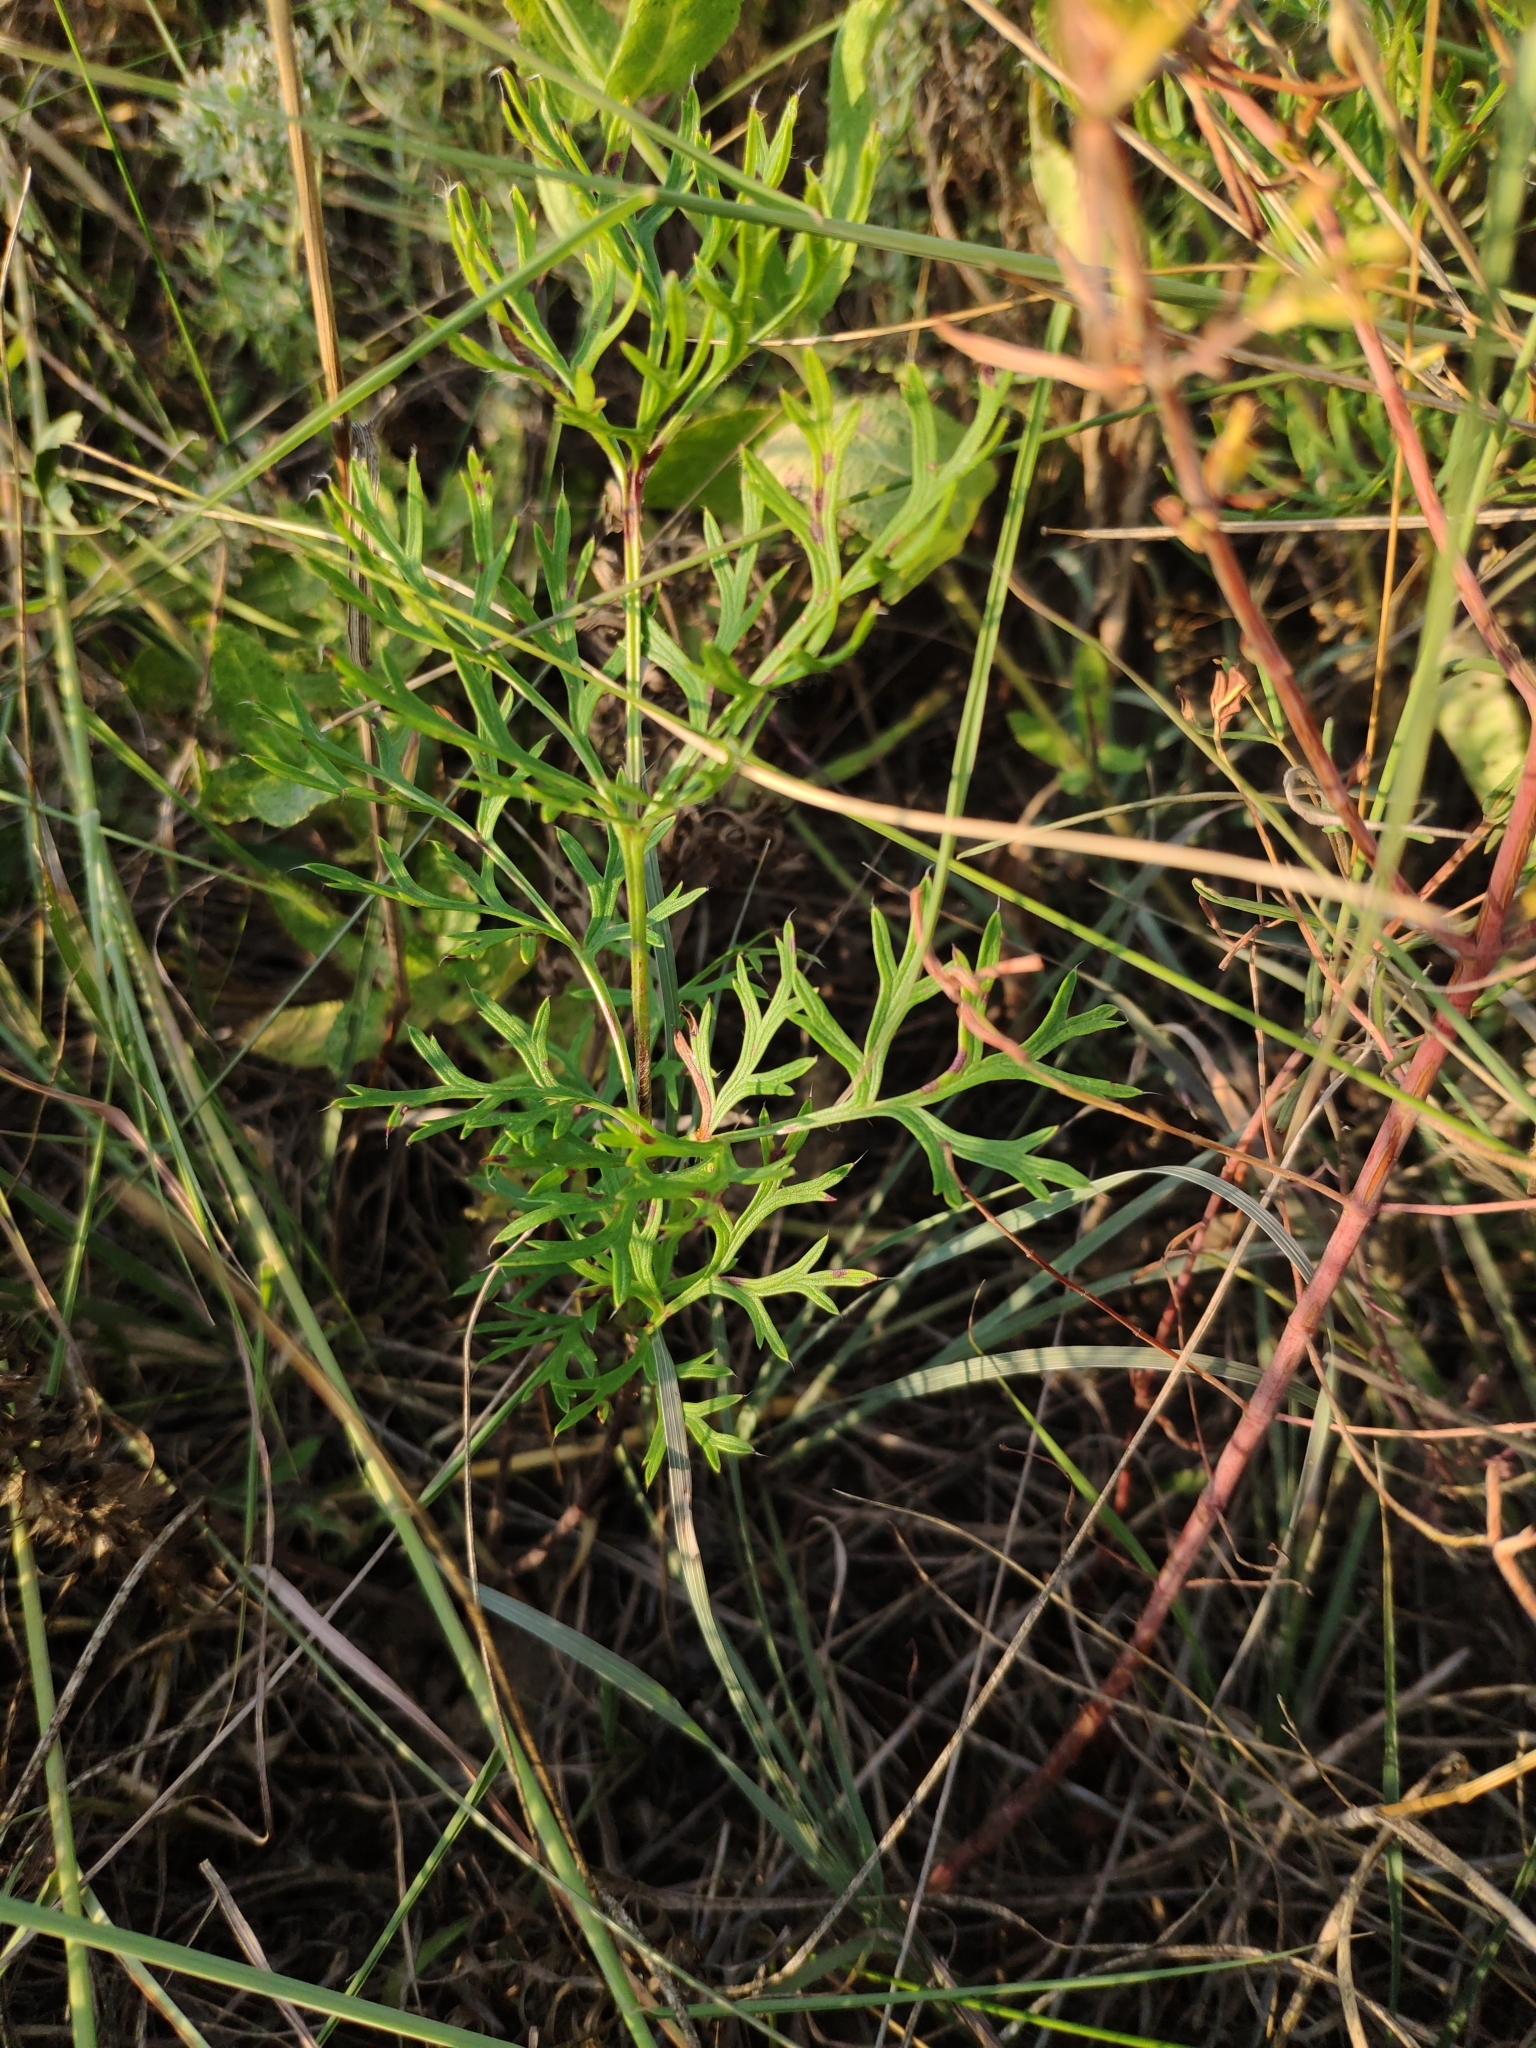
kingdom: Plantae
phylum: Tracheophyta
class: Magnoliopsida
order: Ranunculales
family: Ranunculaceae
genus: Pulsatilla
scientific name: Pulsatilla pratensis
